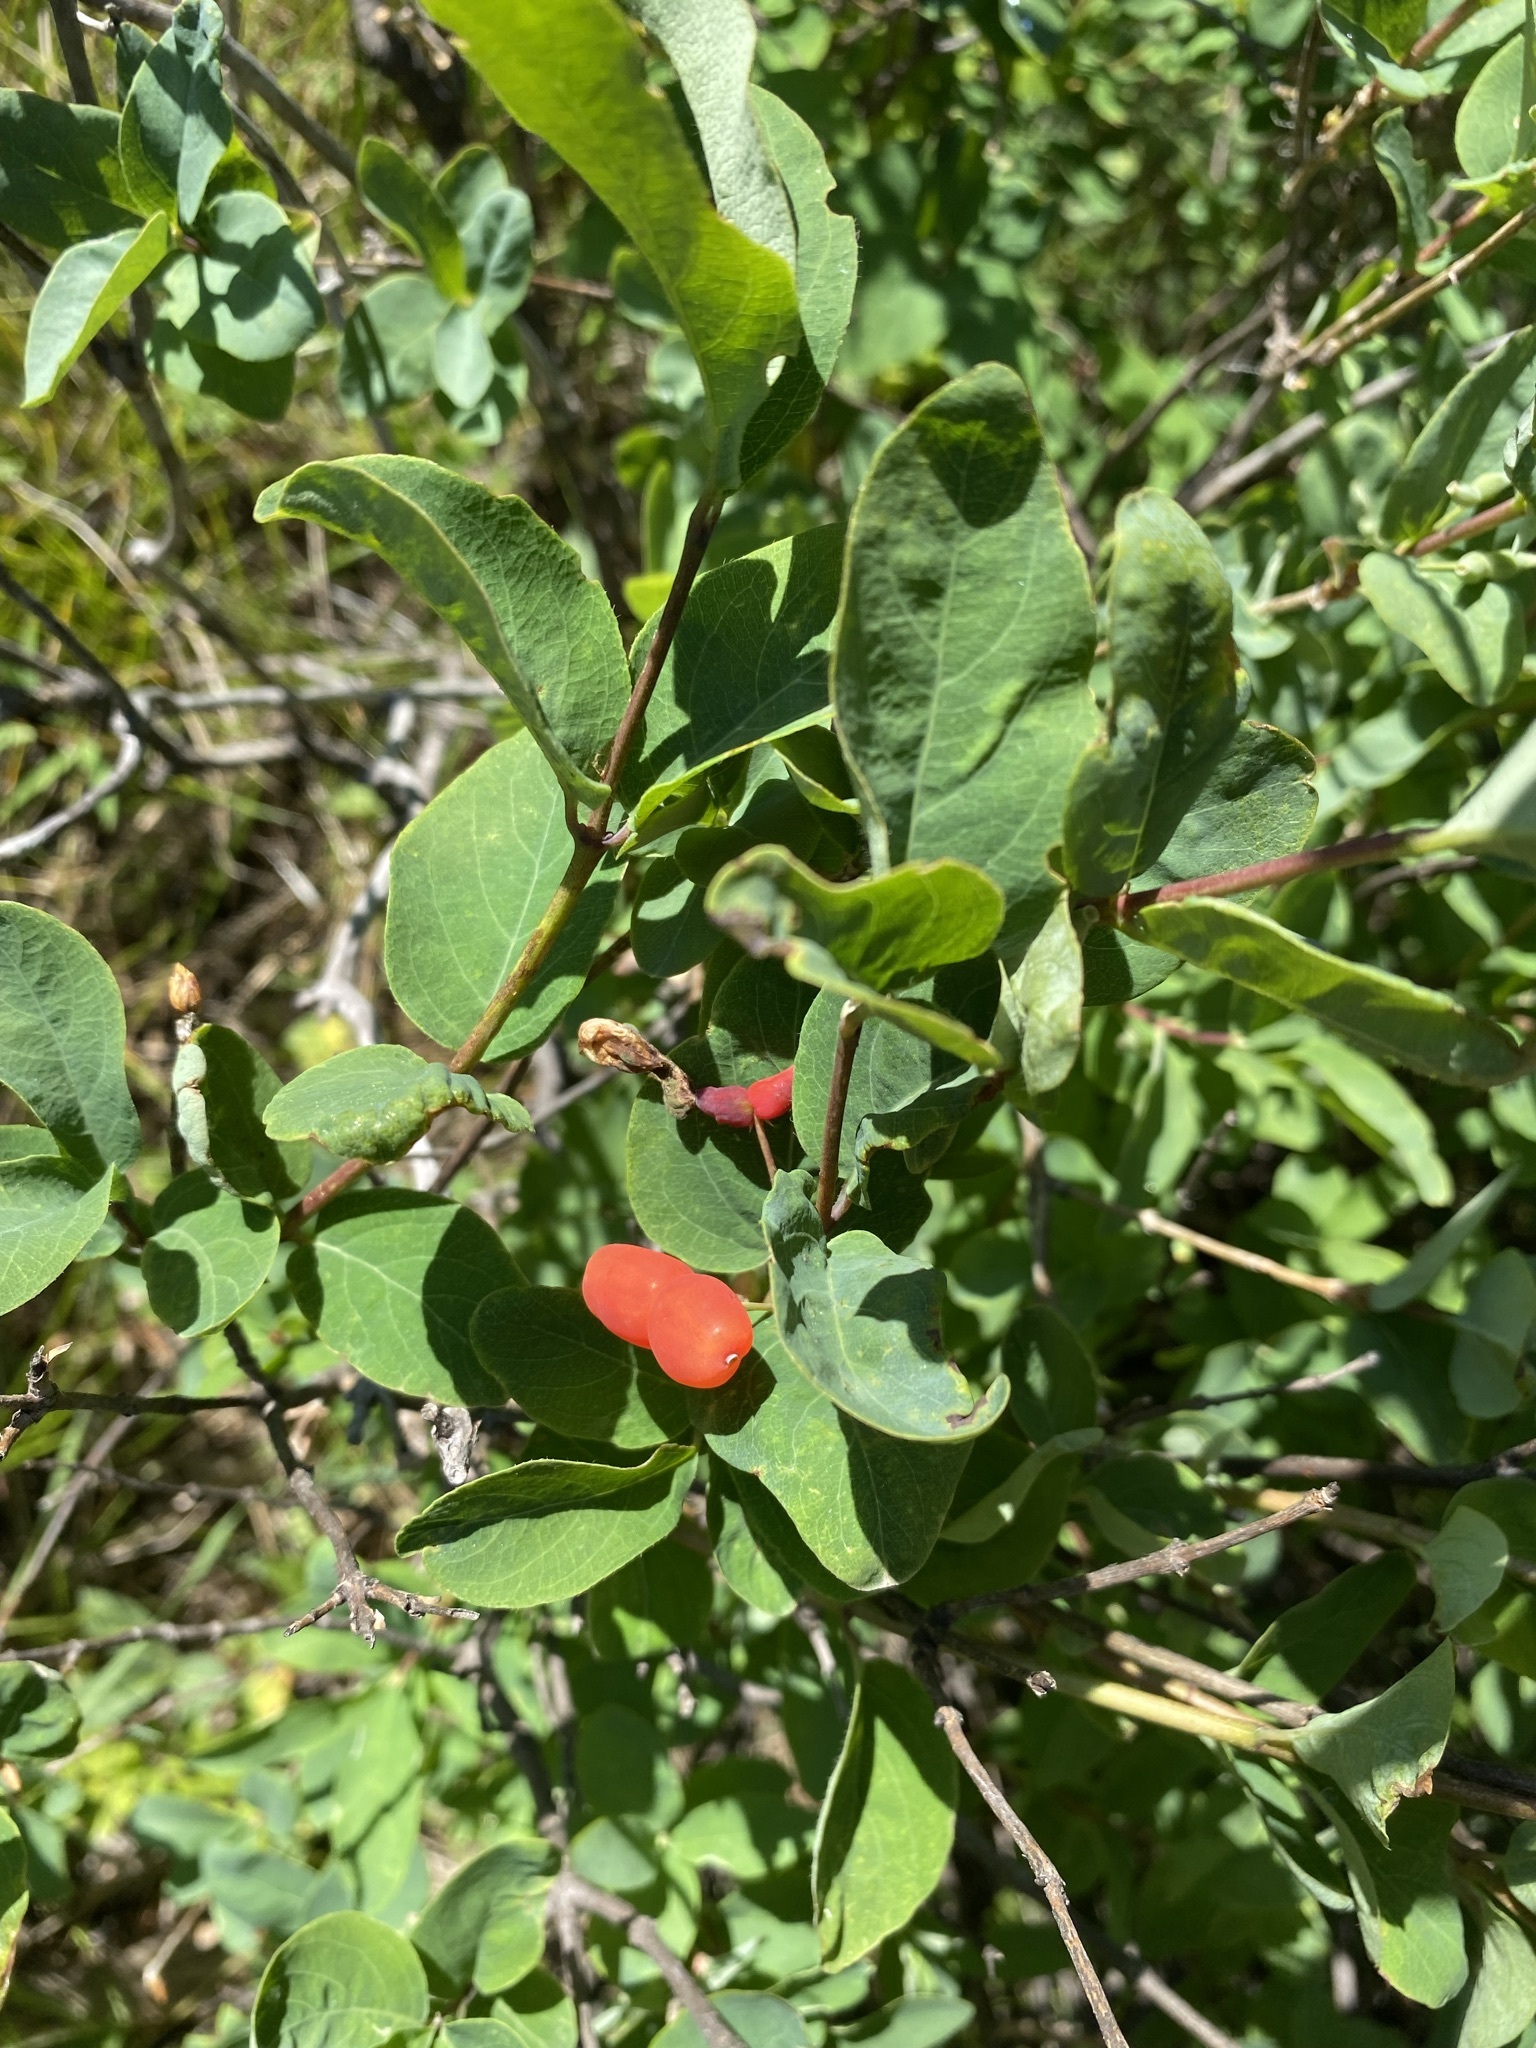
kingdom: Plantae
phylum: Tracheophyta
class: Magnoliopsida
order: Dipsacales
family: Caprifoliaceae
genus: Lonicera
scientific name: Lonicera utahensis
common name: Utah honeysuckle
